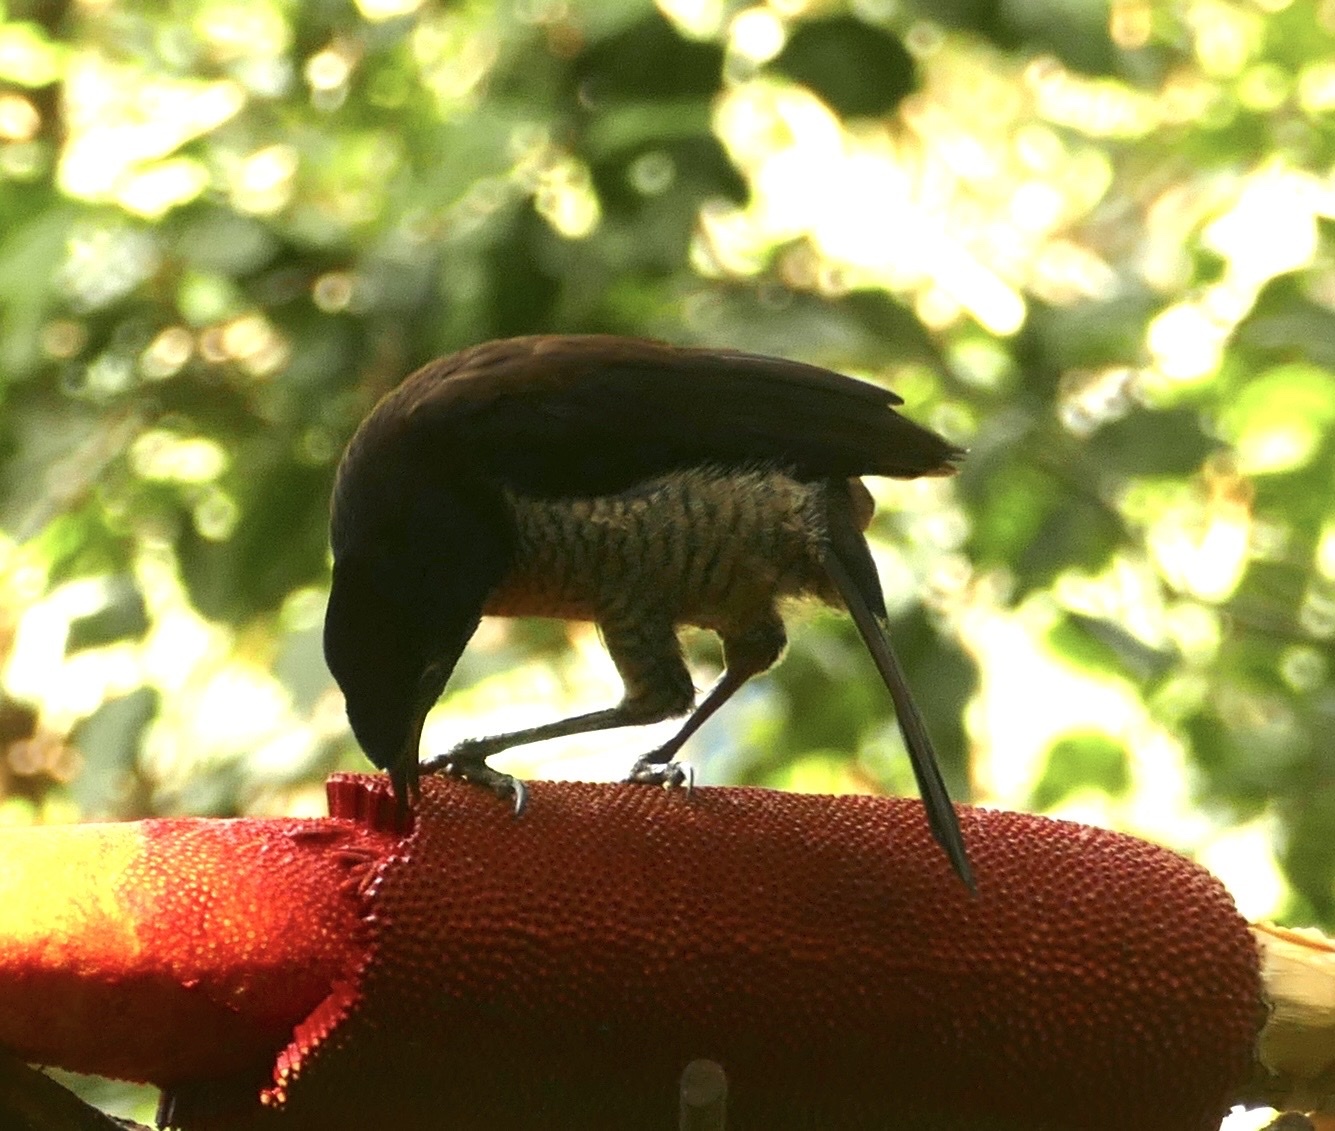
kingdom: Animalia
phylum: Chordata
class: Aves
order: Passeriformes
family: Paradisaeidae
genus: Parotia
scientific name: Parotia sefilata
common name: Western parotia
